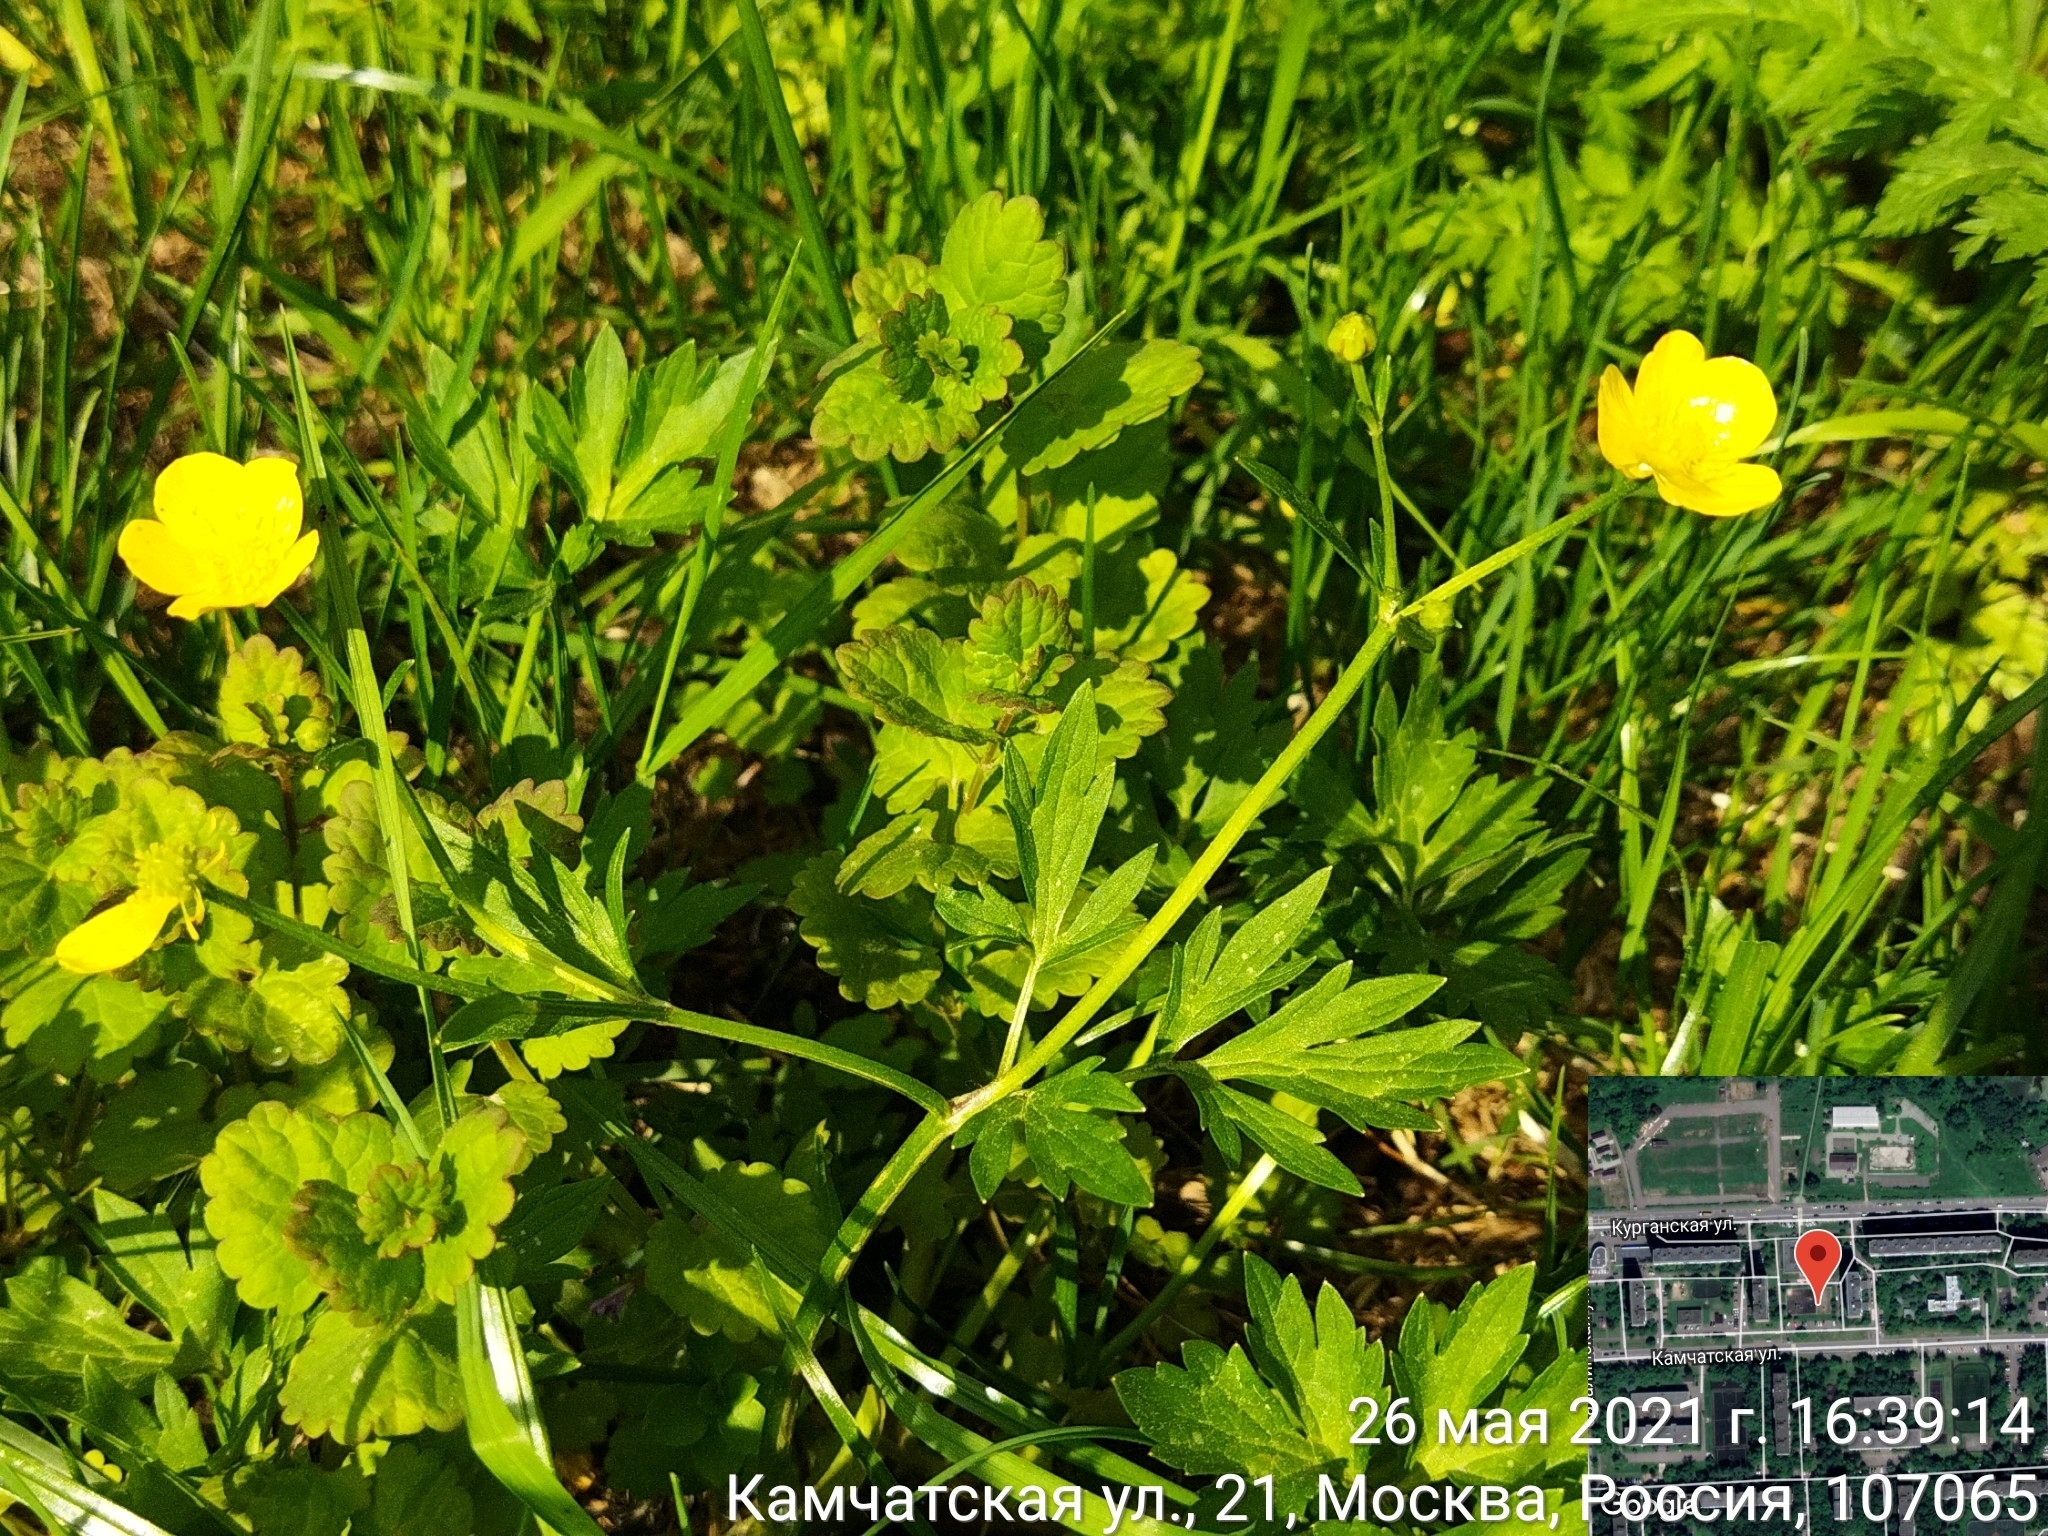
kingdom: Plantae
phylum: Tracheophyta
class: Magnoliopsida
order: Ranunculales
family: Ranunculaceae
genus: Ranunculus
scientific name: Ranunculus repens
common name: Creeping buttercup
